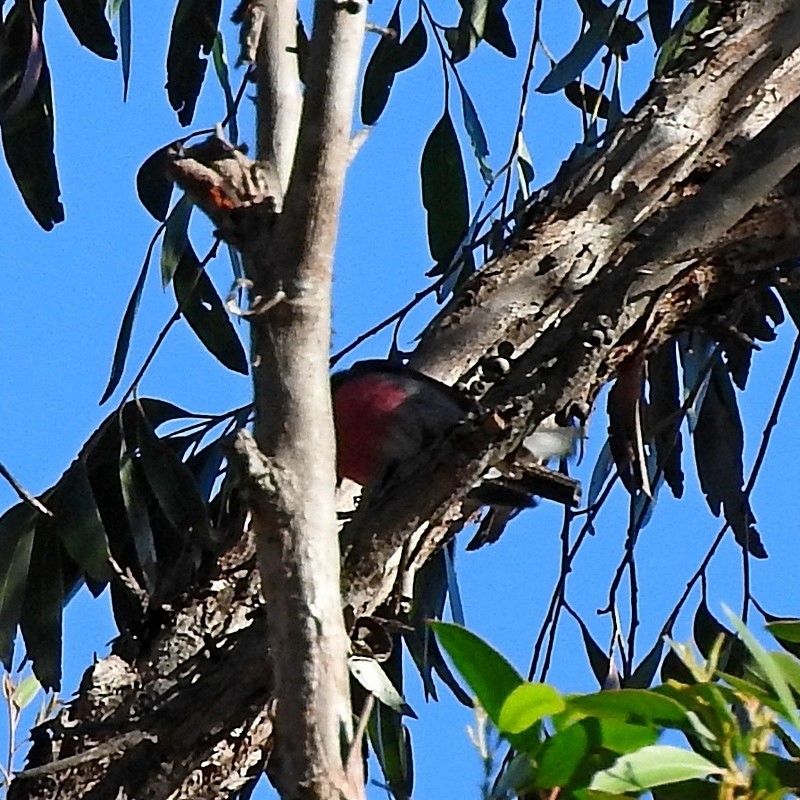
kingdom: Animalia
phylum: Chordata
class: Aves
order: Passeriformes
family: Petroicidae
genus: Petroica
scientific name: Petroica rosea
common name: Rose robin
